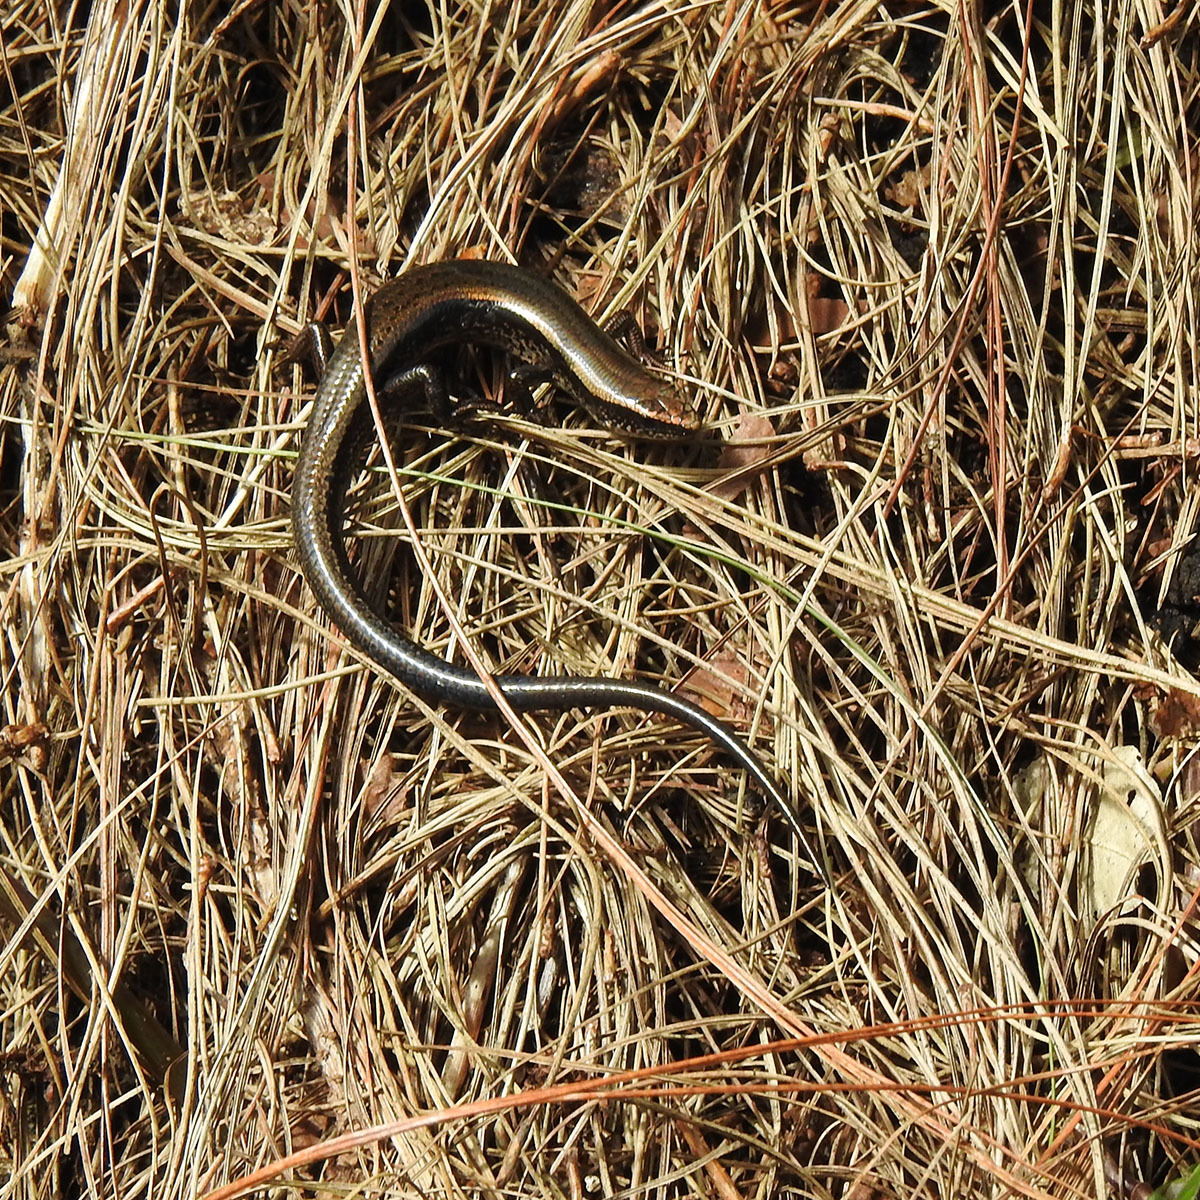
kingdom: Animalia
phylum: Chordata
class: Squamata
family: Scincidae
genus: Kaestlea
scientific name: Kaestlea travancorica
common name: Barbour's ground skink
